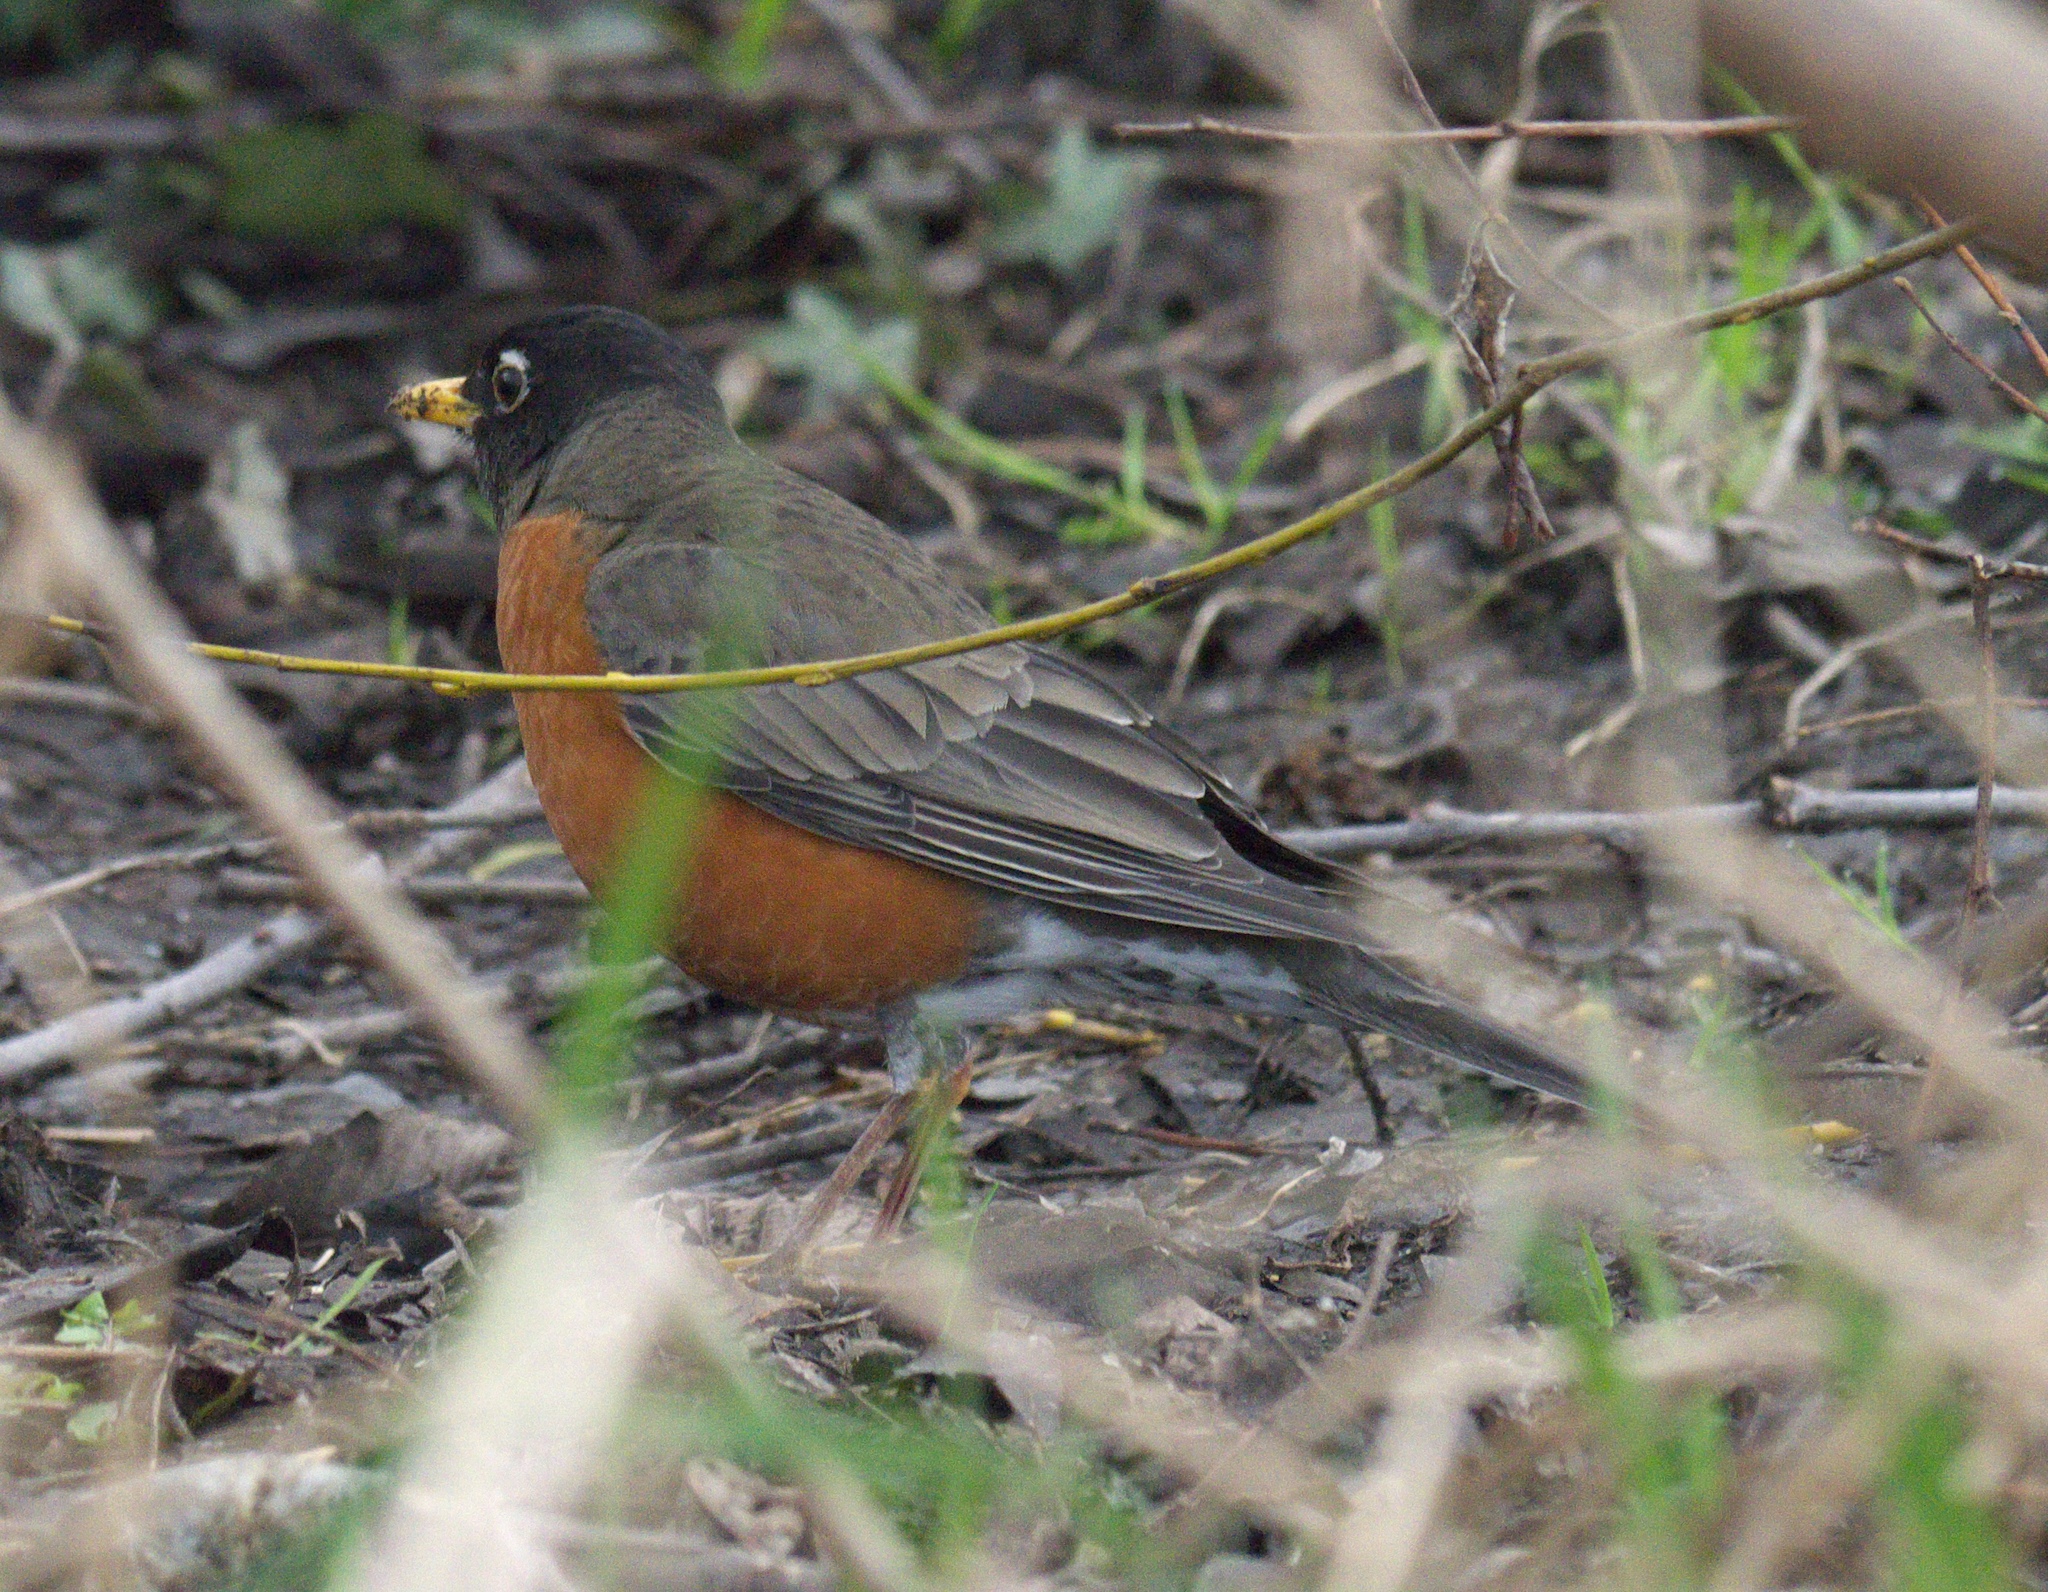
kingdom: Animalia
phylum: Chordata
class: Aves
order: Passeriformes
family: Turdidae
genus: Turdus
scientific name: Turdus migratorius
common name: American robin
